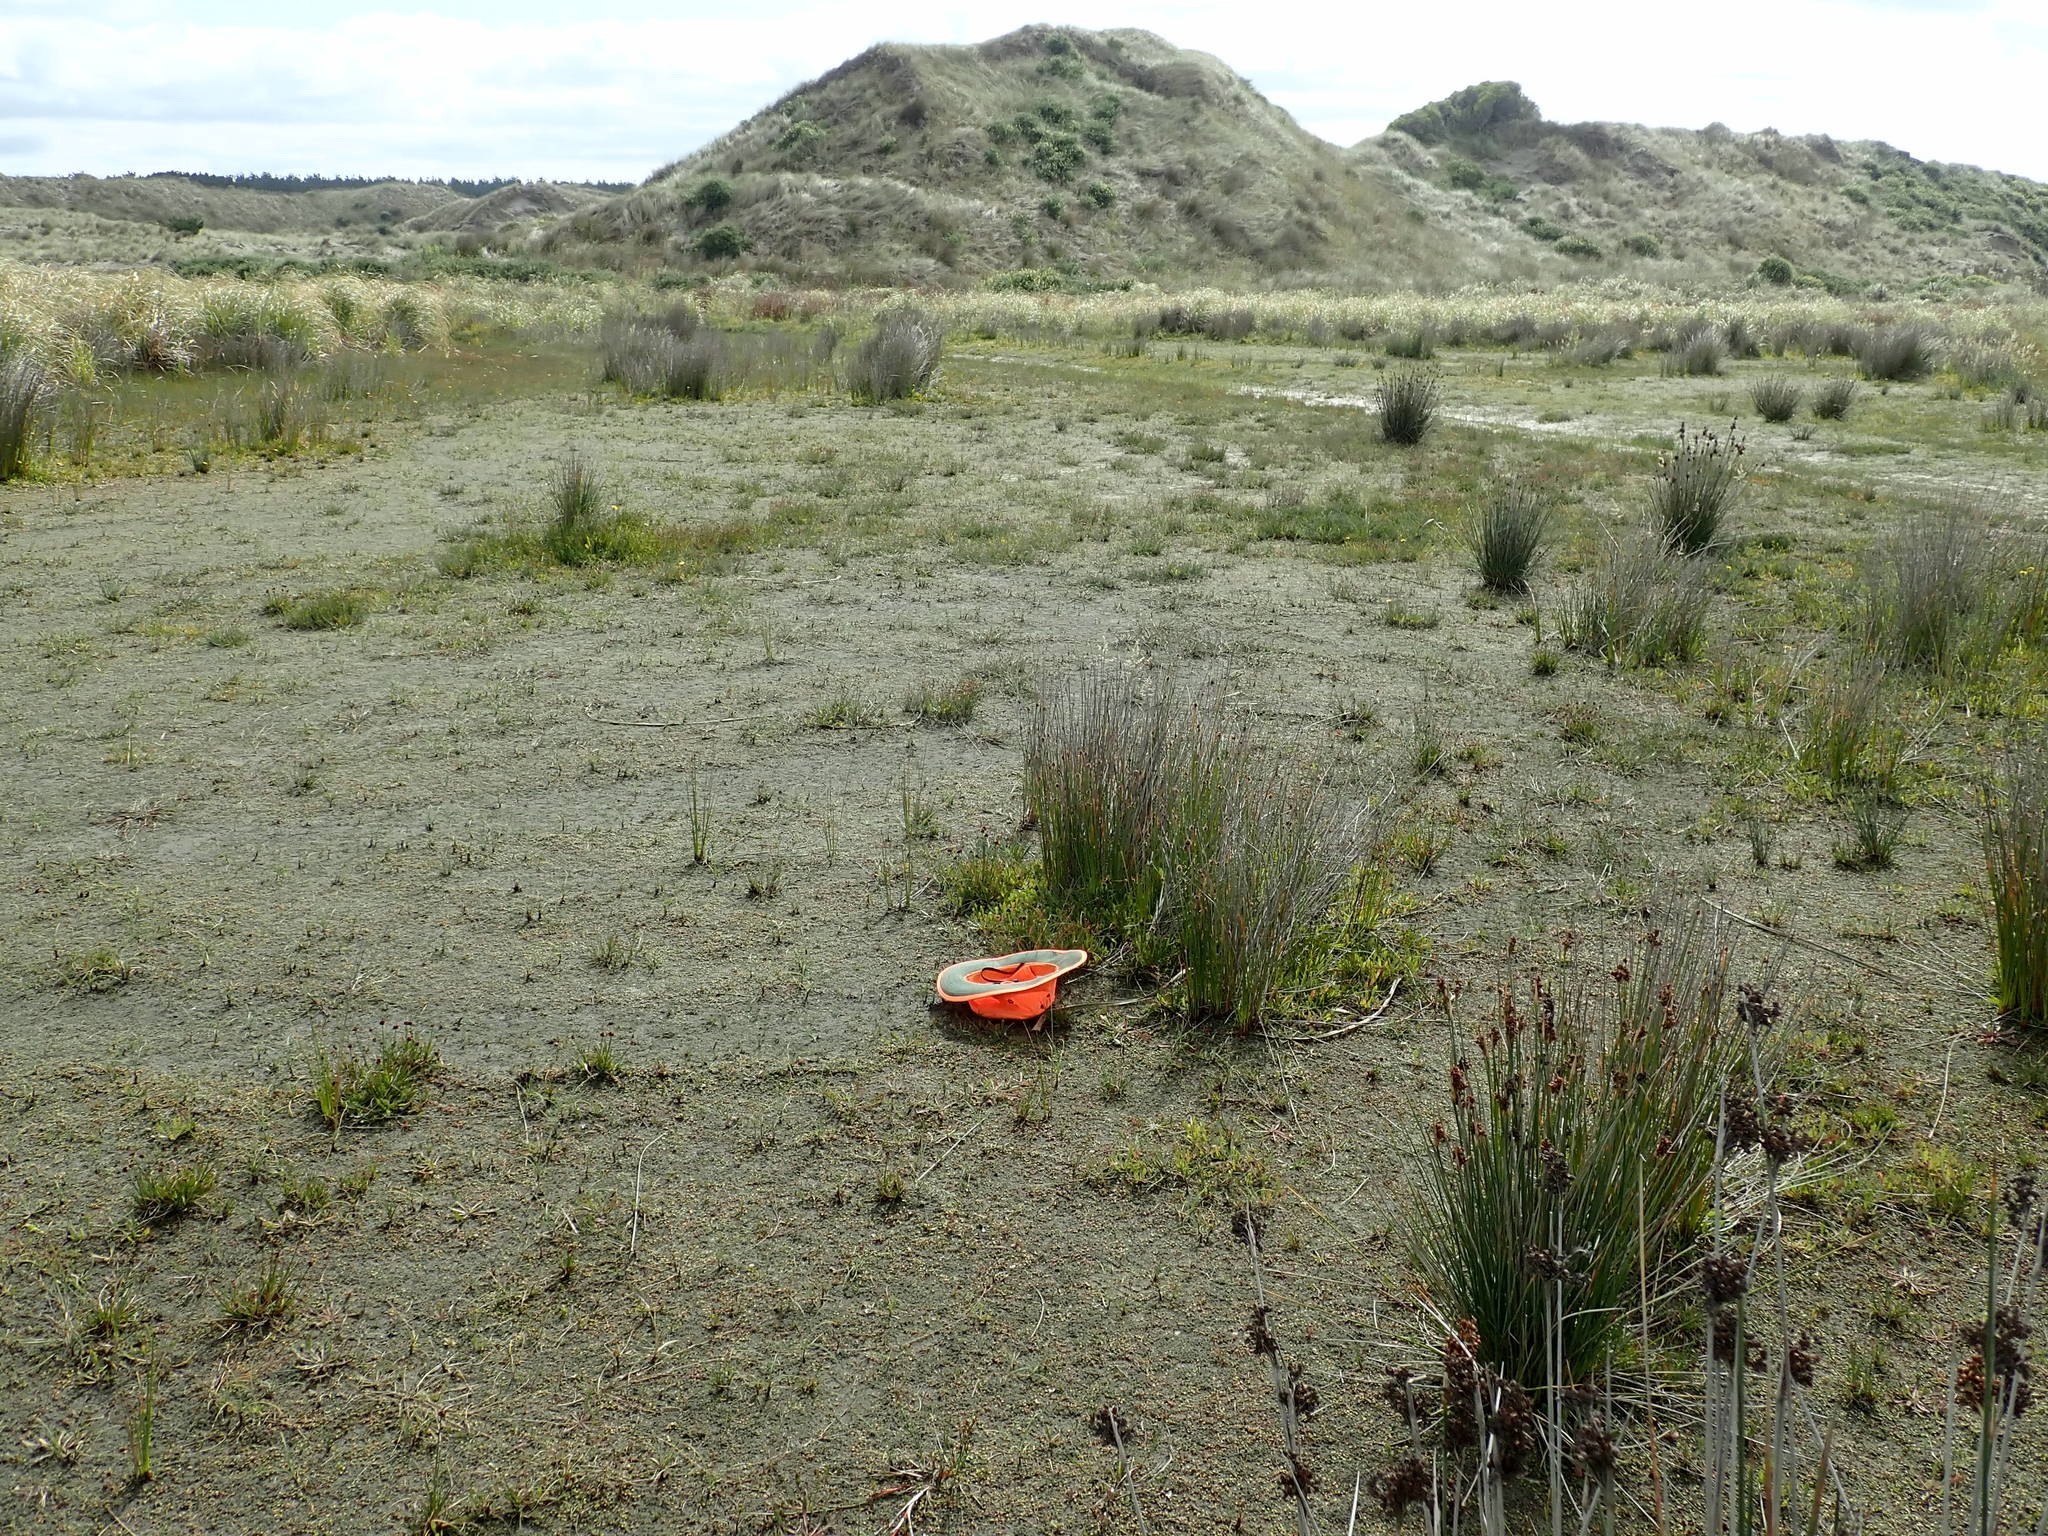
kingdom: Plantae
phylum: Tracheophyta
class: Magnoliopsida
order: Ranunculales
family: Ranunculaceae
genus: Ranunculus
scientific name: Ranunculus acaulis
